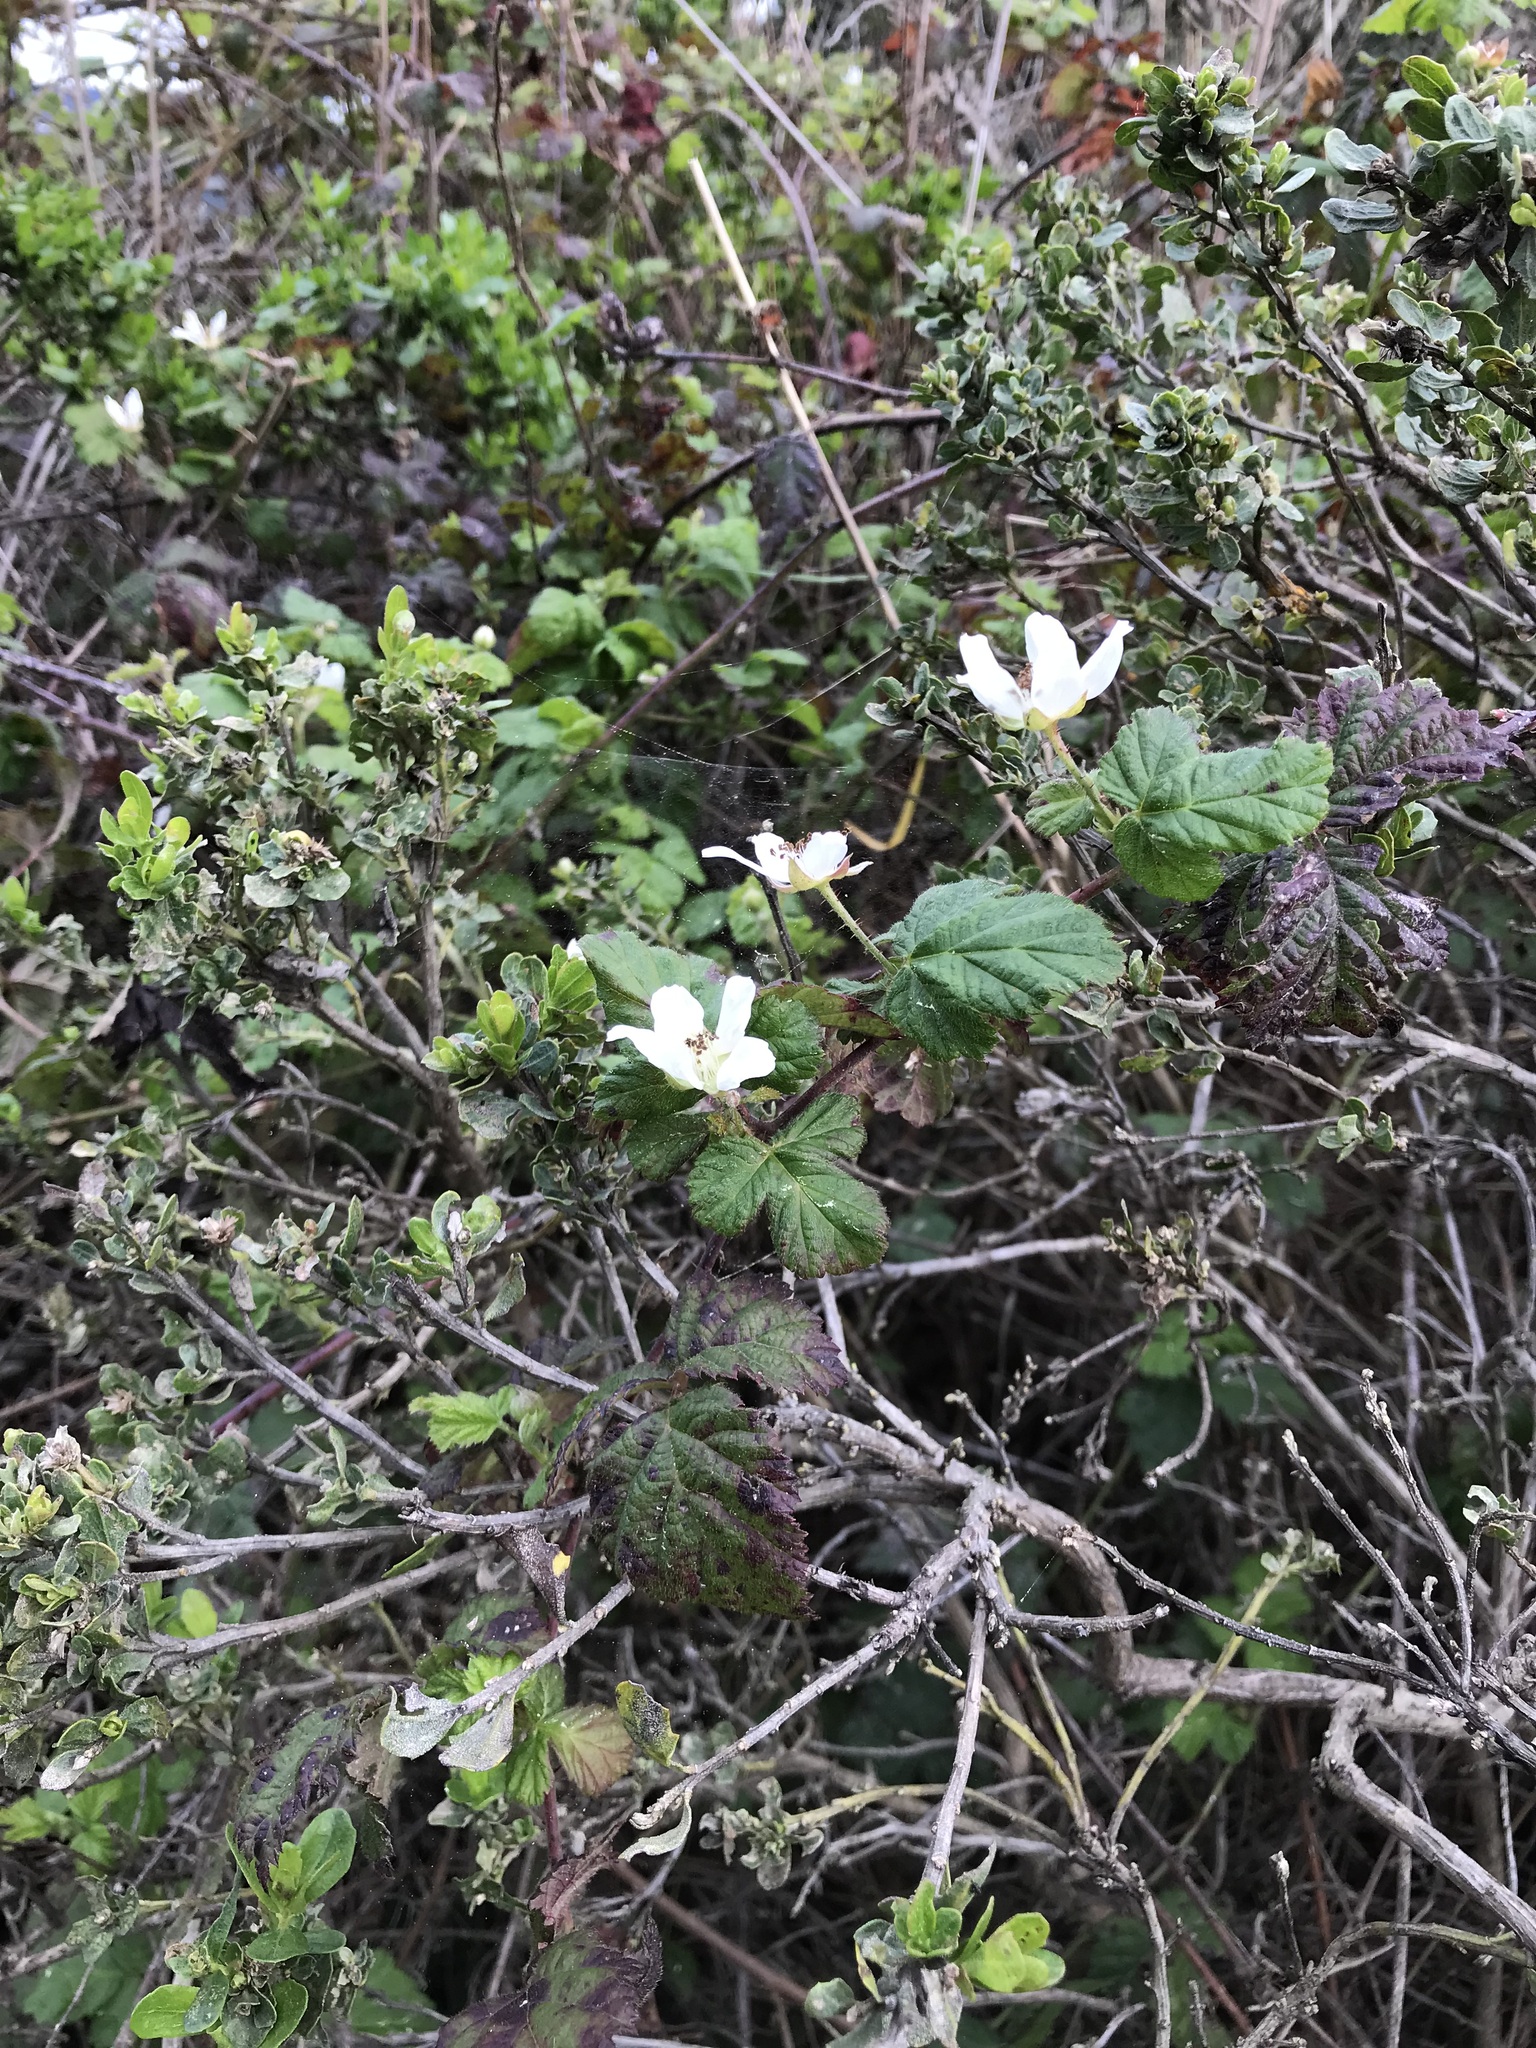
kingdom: Plantae
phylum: Tracheophyta
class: Magnoliopsida
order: Rosales
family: Rosaceae
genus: Rubus
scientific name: Rubus ursinus
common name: Pacific blackberry
